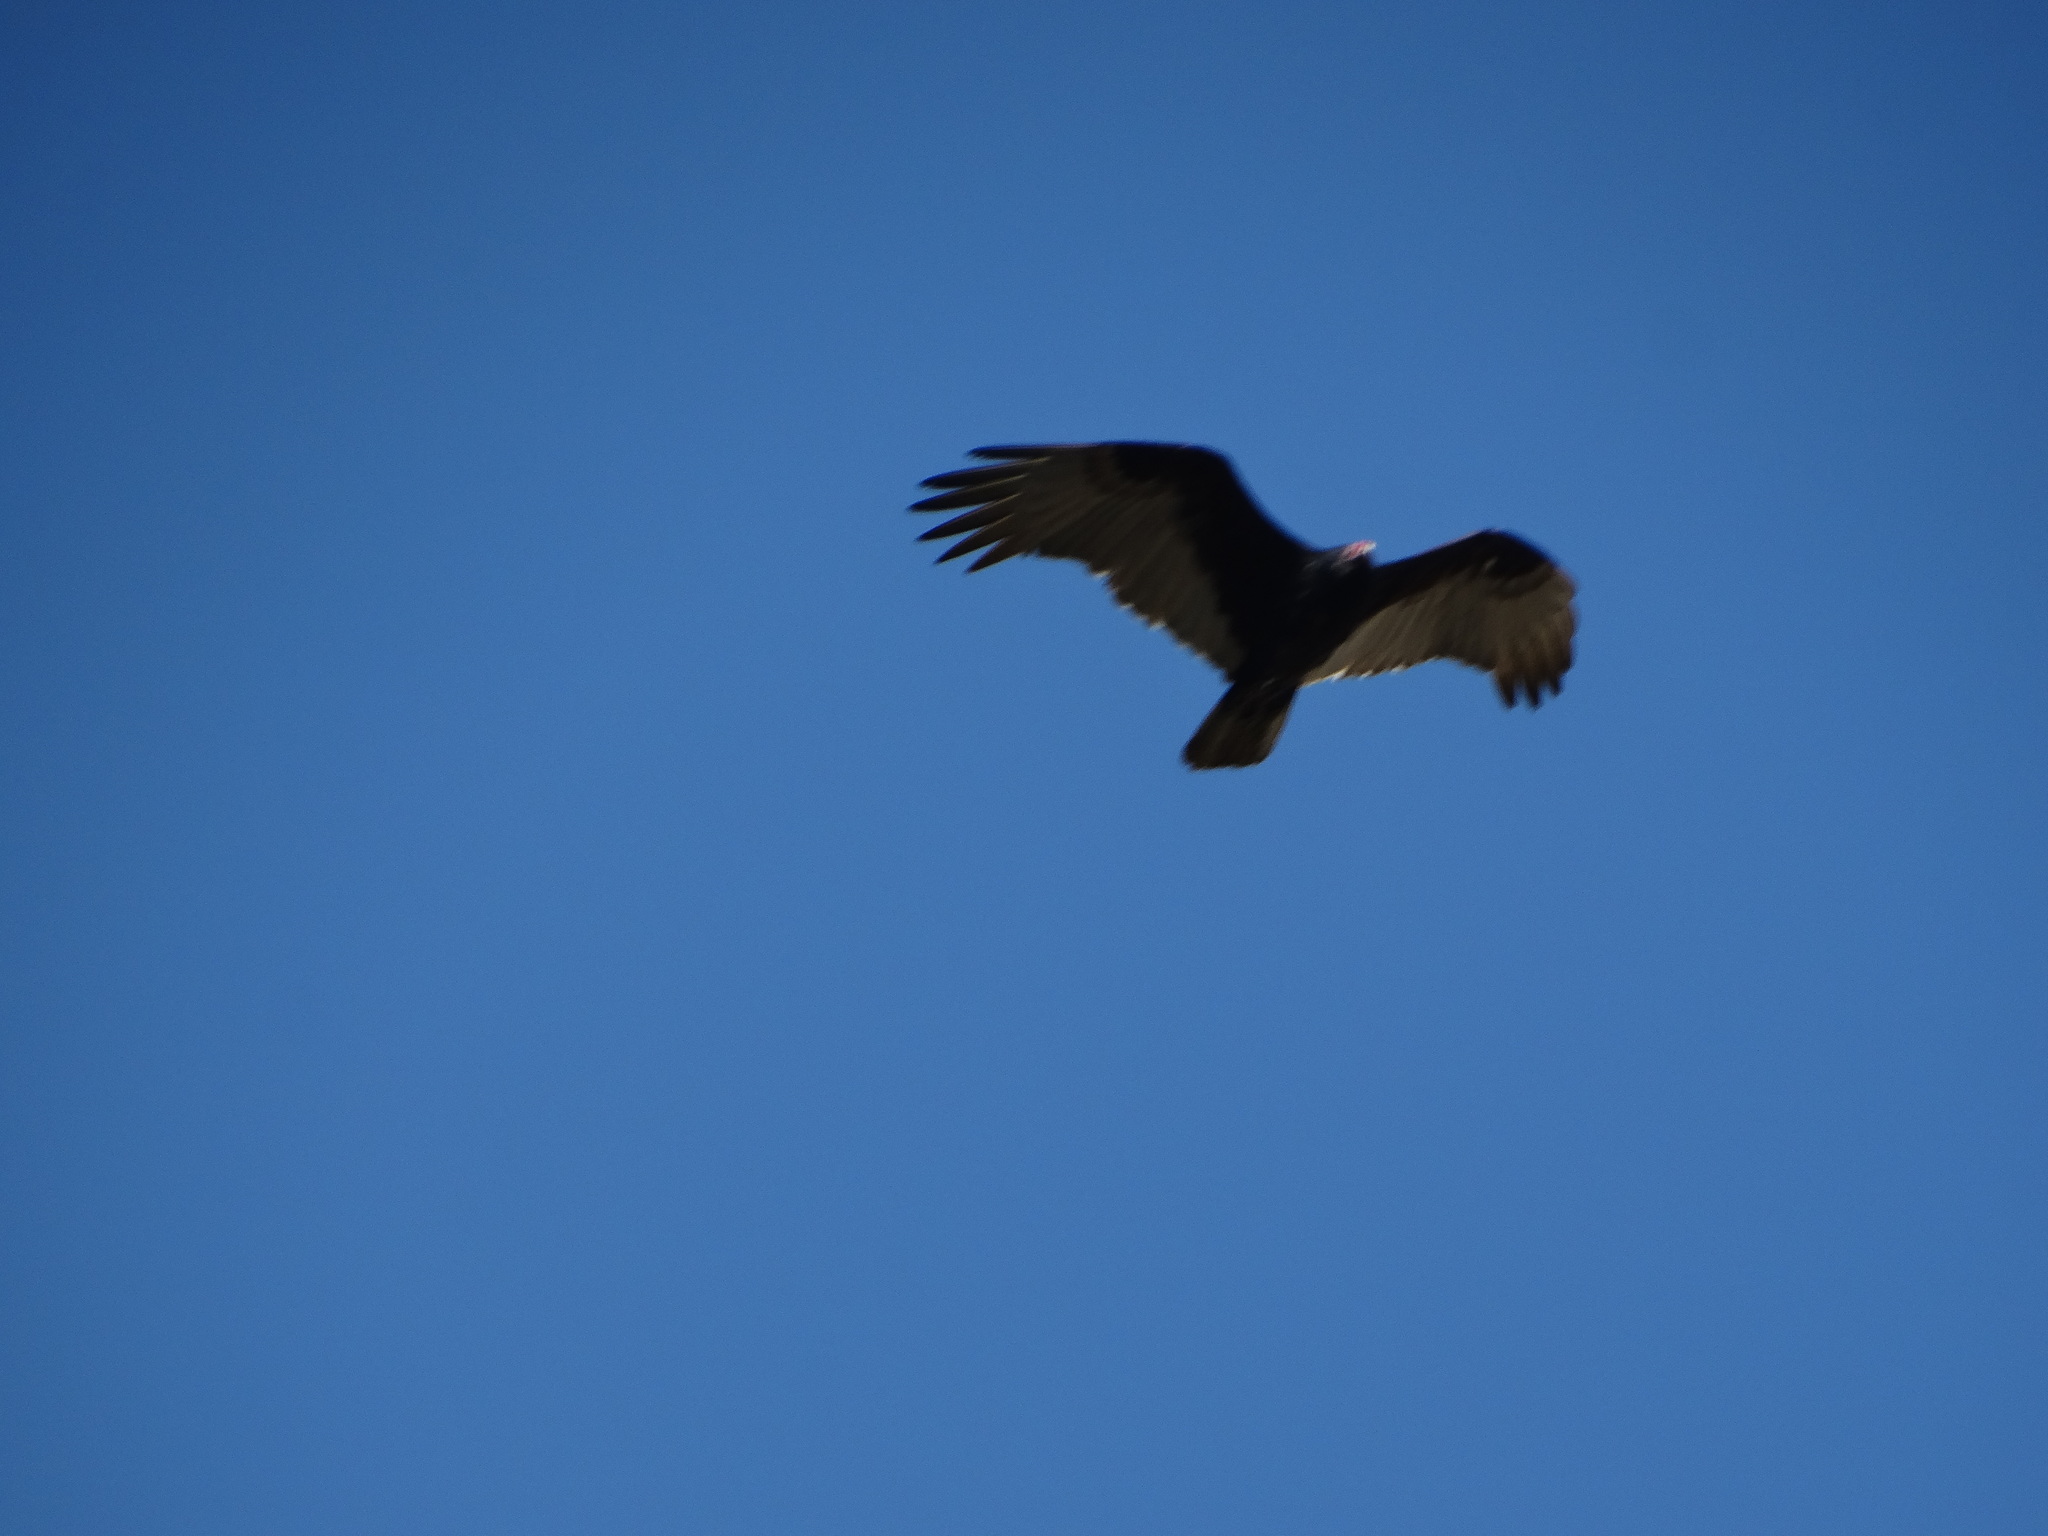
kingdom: Animalia
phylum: Chordata
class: Aves
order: Accipitriformes
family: Cathartidae
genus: Cathartes
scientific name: Cathartes aura
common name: Turkey vulture
